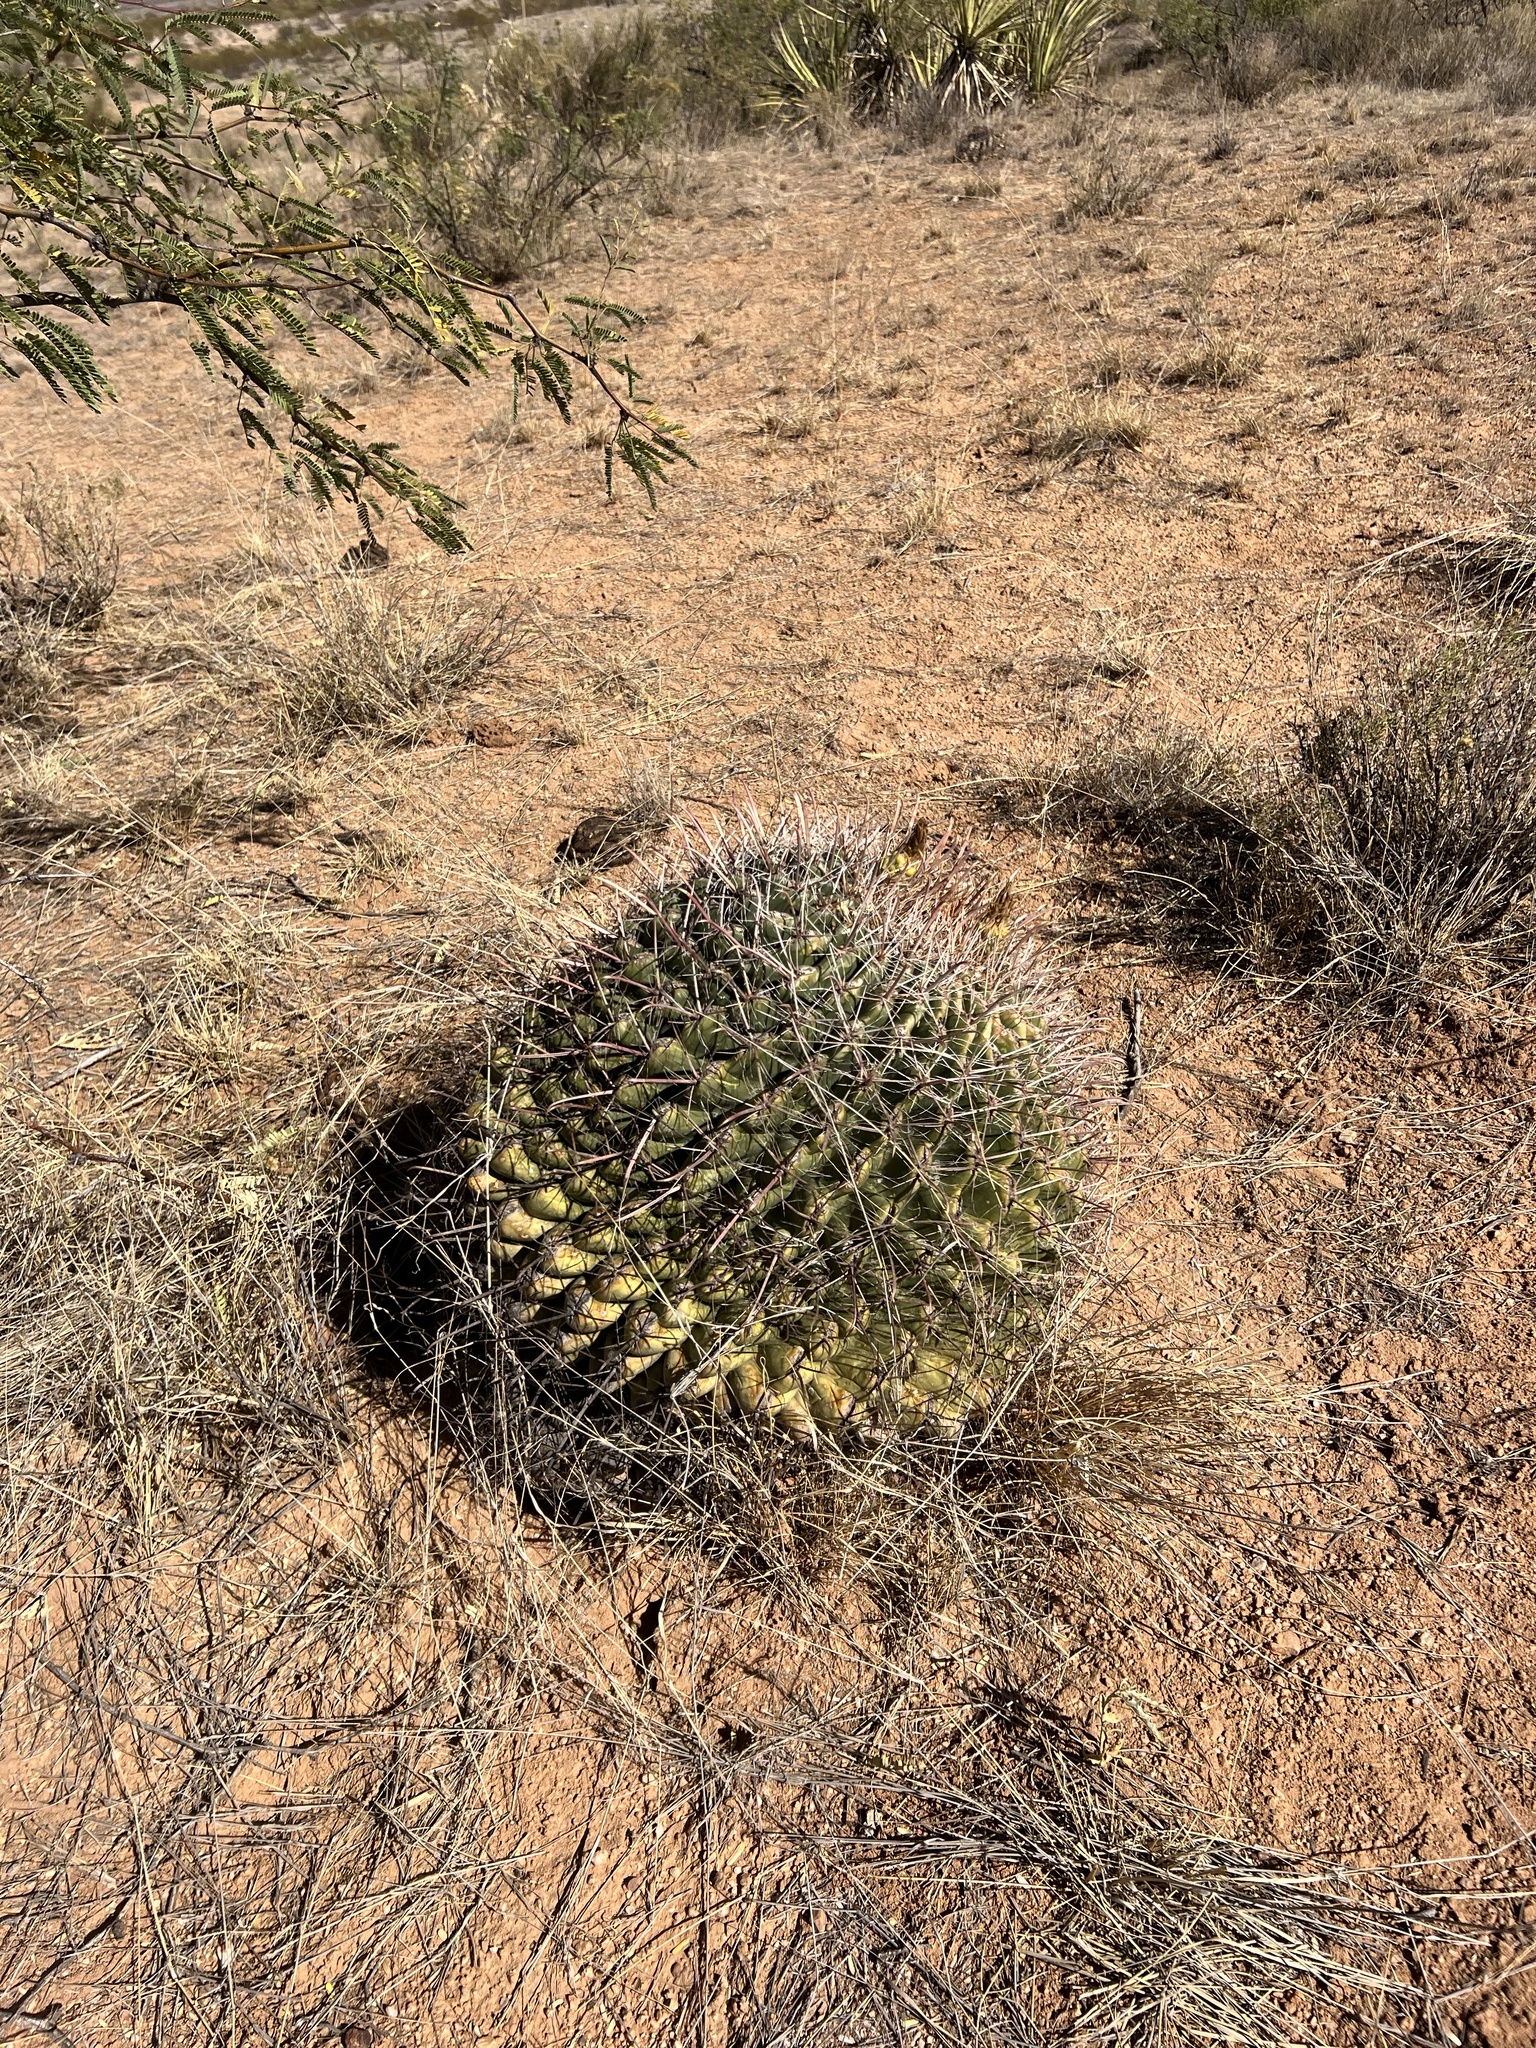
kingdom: Plantae
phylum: Tracheophyta
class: Magnoliopsida
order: Caryophyllales
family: Cactaceae
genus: Ferocactus
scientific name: Ferocactus wislizeni
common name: Candy barrel cactus
